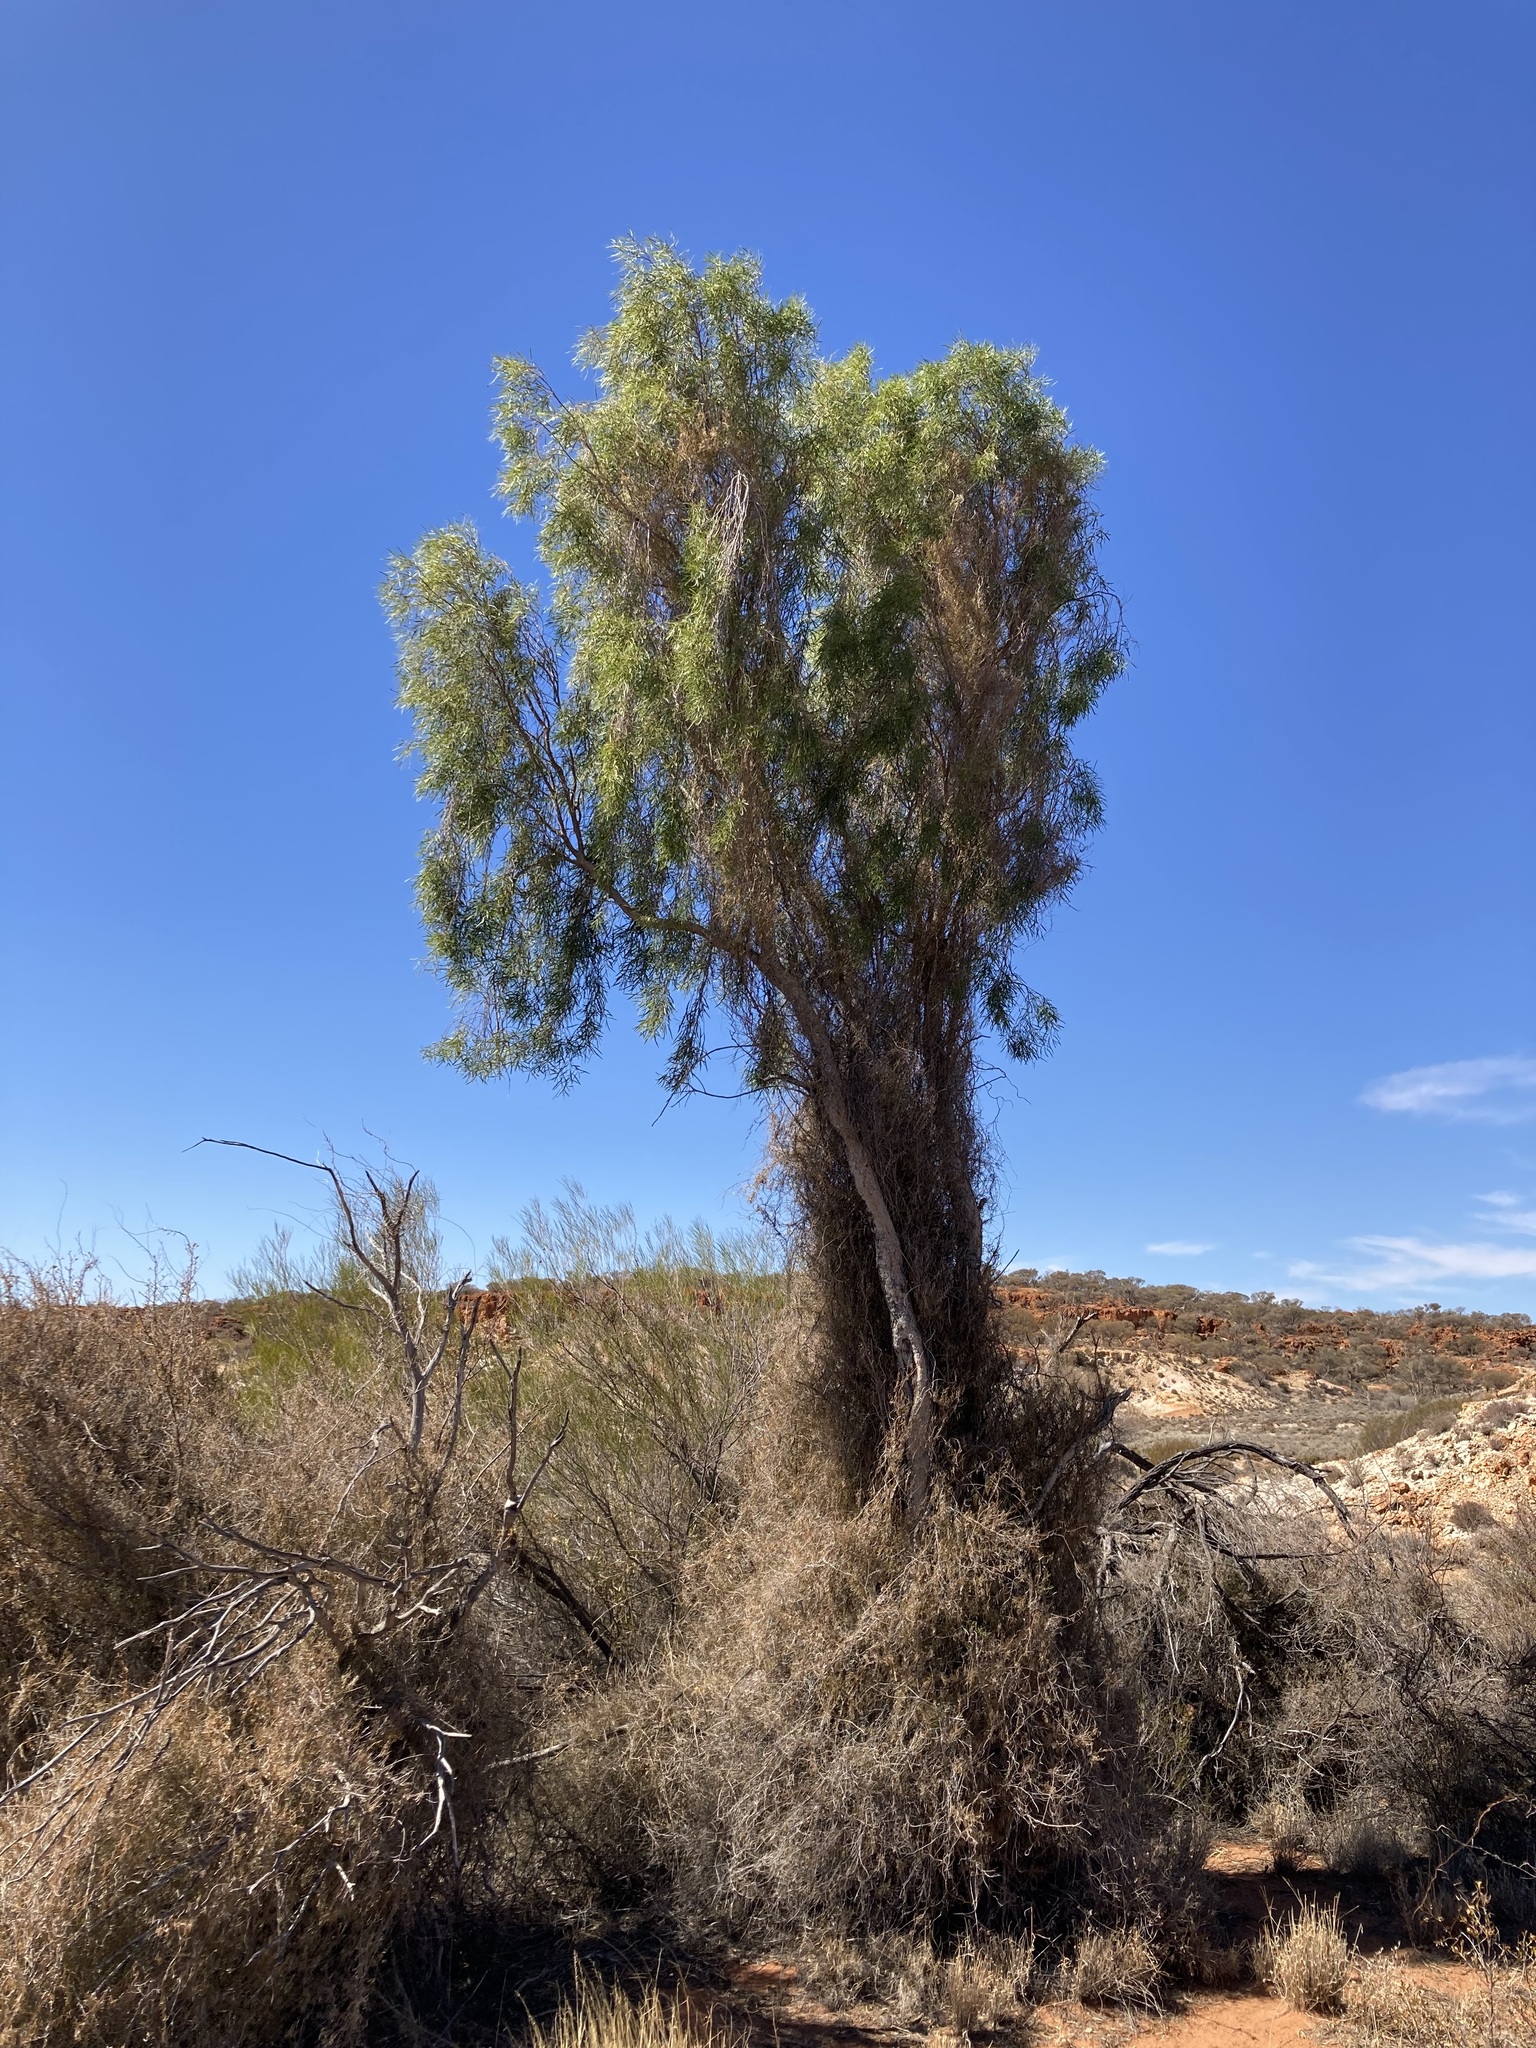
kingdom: Plantae
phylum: Tracheophyta
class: Magnoliopsida
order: Apiales
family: Pittosporaceae
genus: Pittosporum
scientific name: Pittosporum angustifolium
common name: Weeping pittosporum
